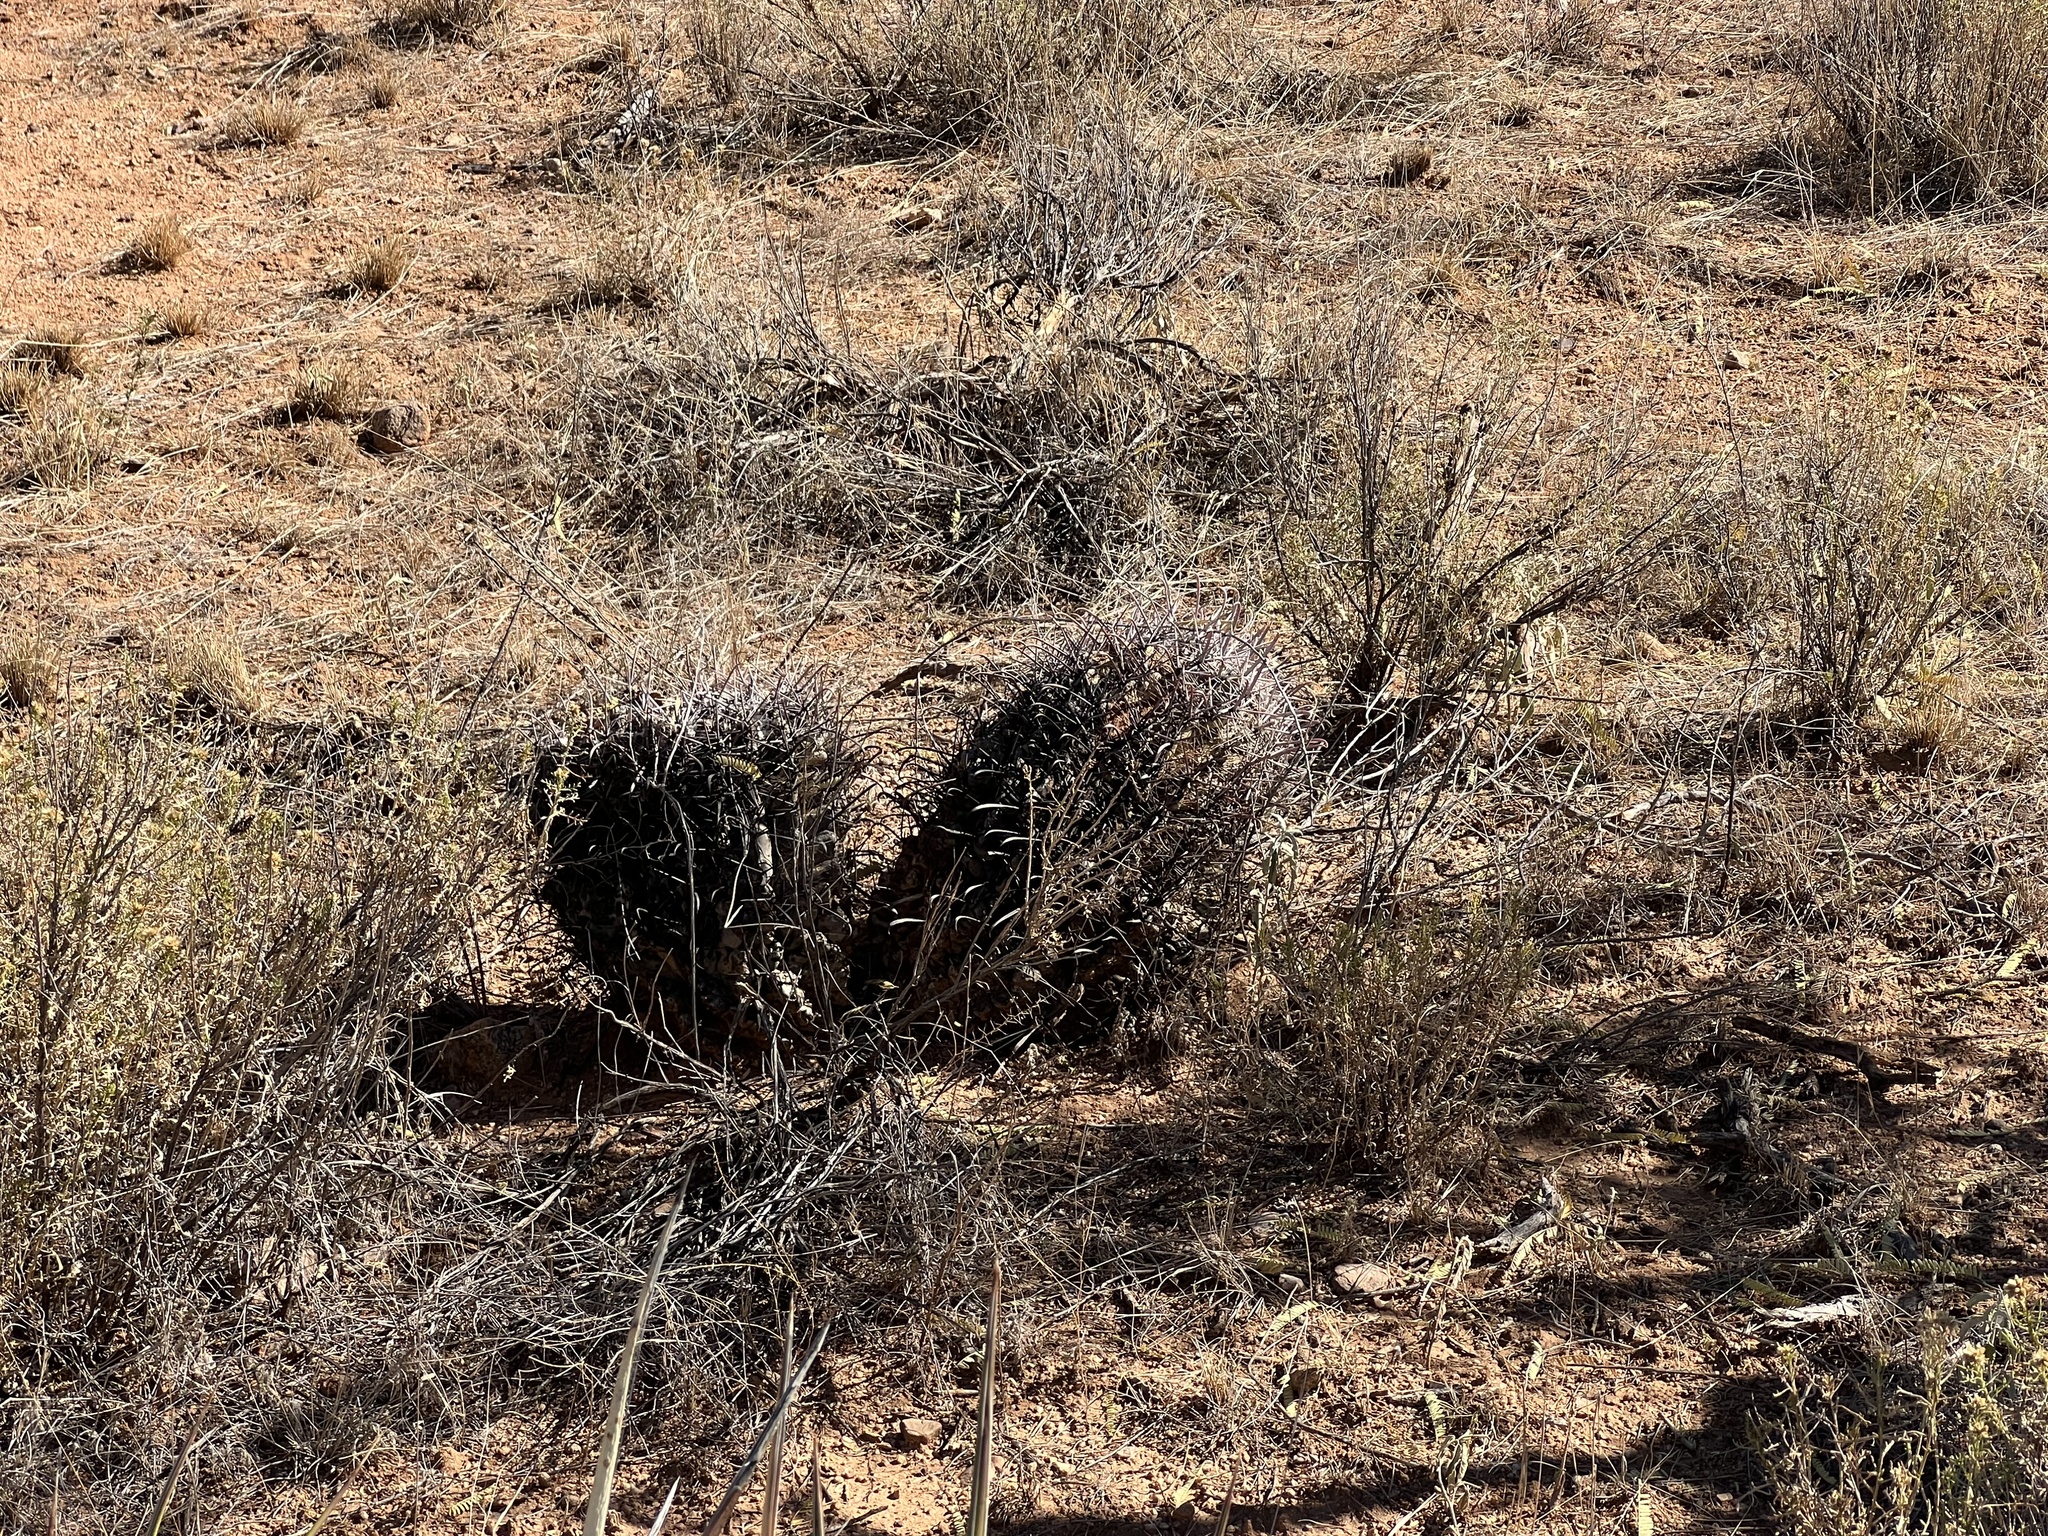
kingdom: Plantae
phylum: Tracheophyta
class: Magnoliopsida
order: Caryophyllales
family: Cactaceae
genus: Ferocactus
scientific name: Ferocactus wislizeni
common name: Candy barrel cactus
